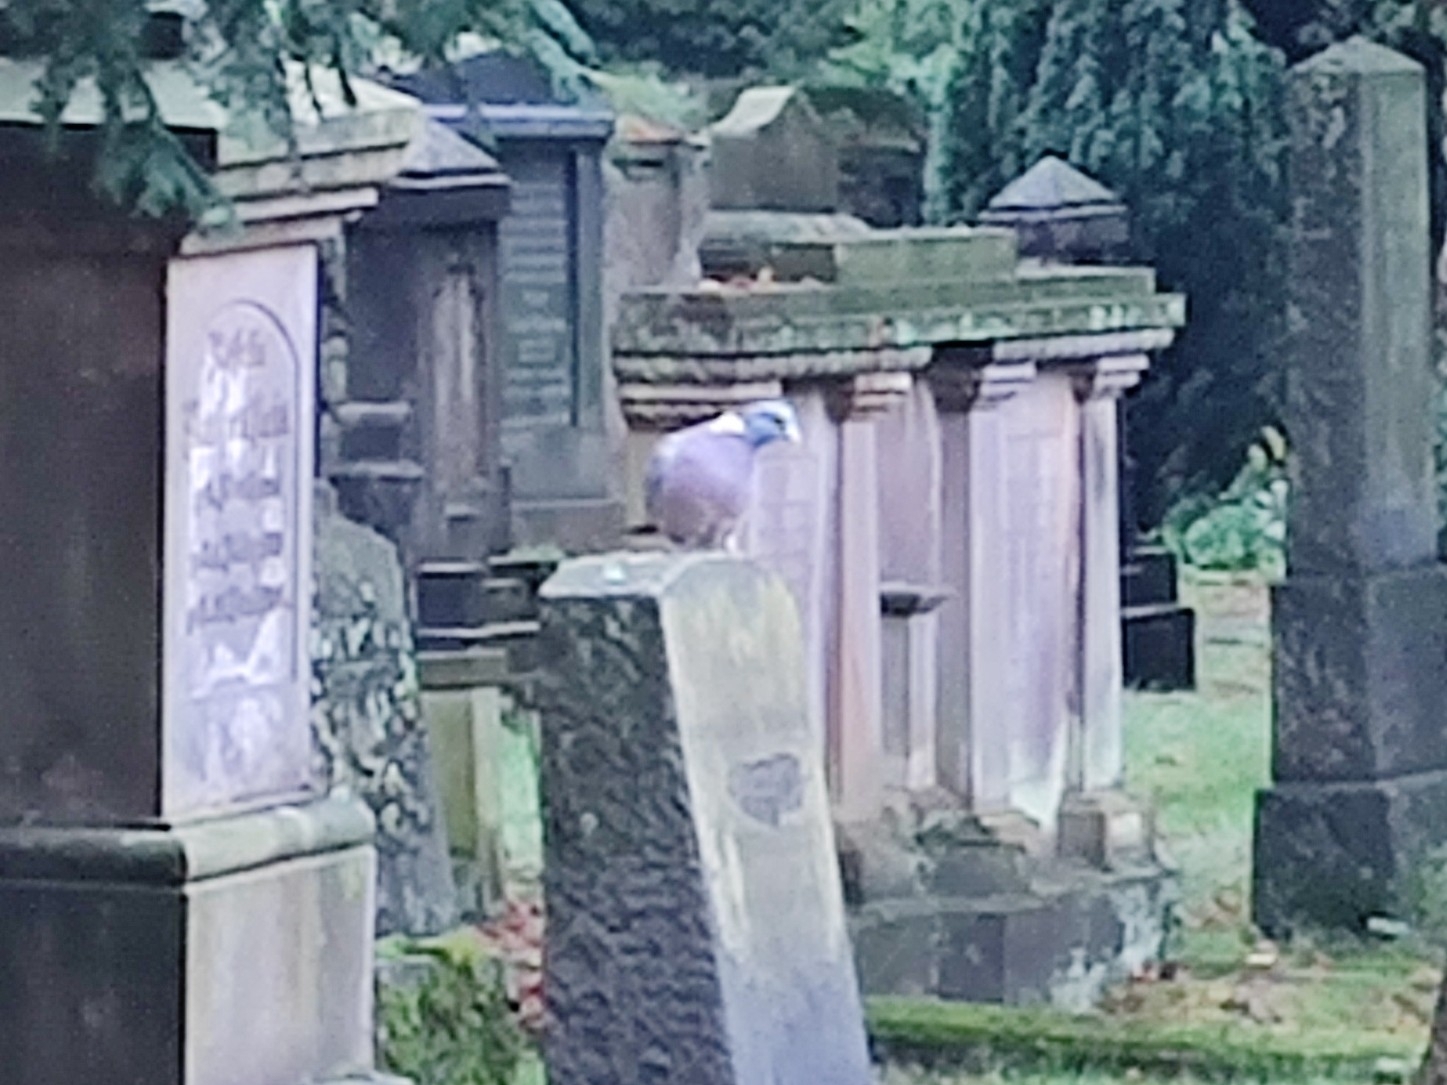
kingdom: Animalia
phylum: Chordata
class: Aves
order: Columbiformes
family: Columbidae
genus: Columba
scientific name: Columba palumbus
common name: Common wood pigeon
